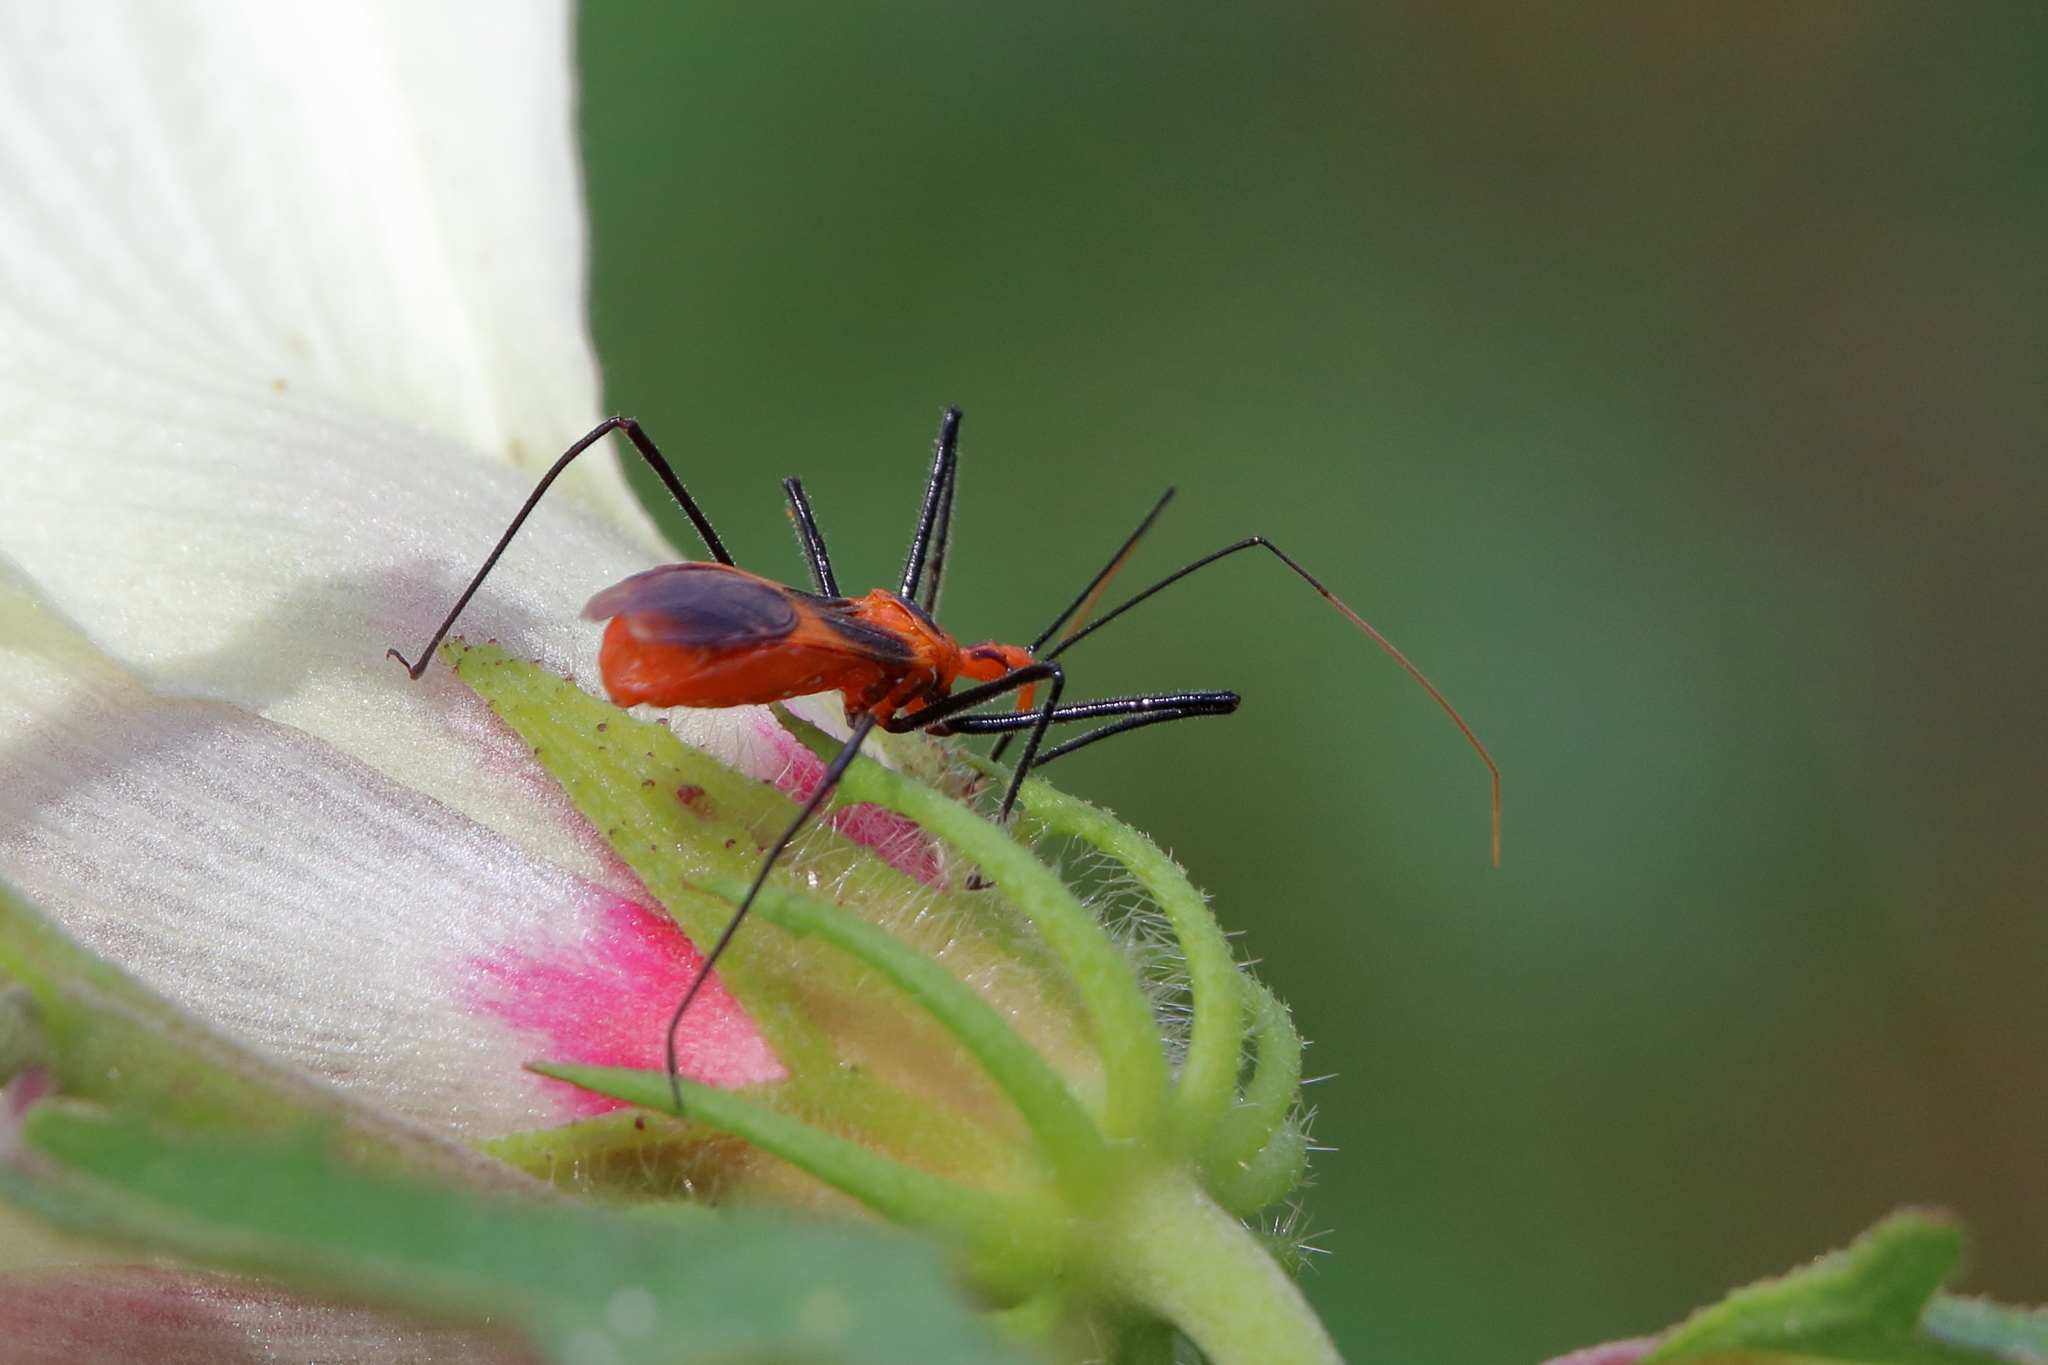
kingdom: Animalia
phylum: Arthropoda
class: Insecta
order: Hemiptera
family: Reduviidae
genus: Zelus
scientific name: Zelus longipes
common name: Milkweed assassin bug
